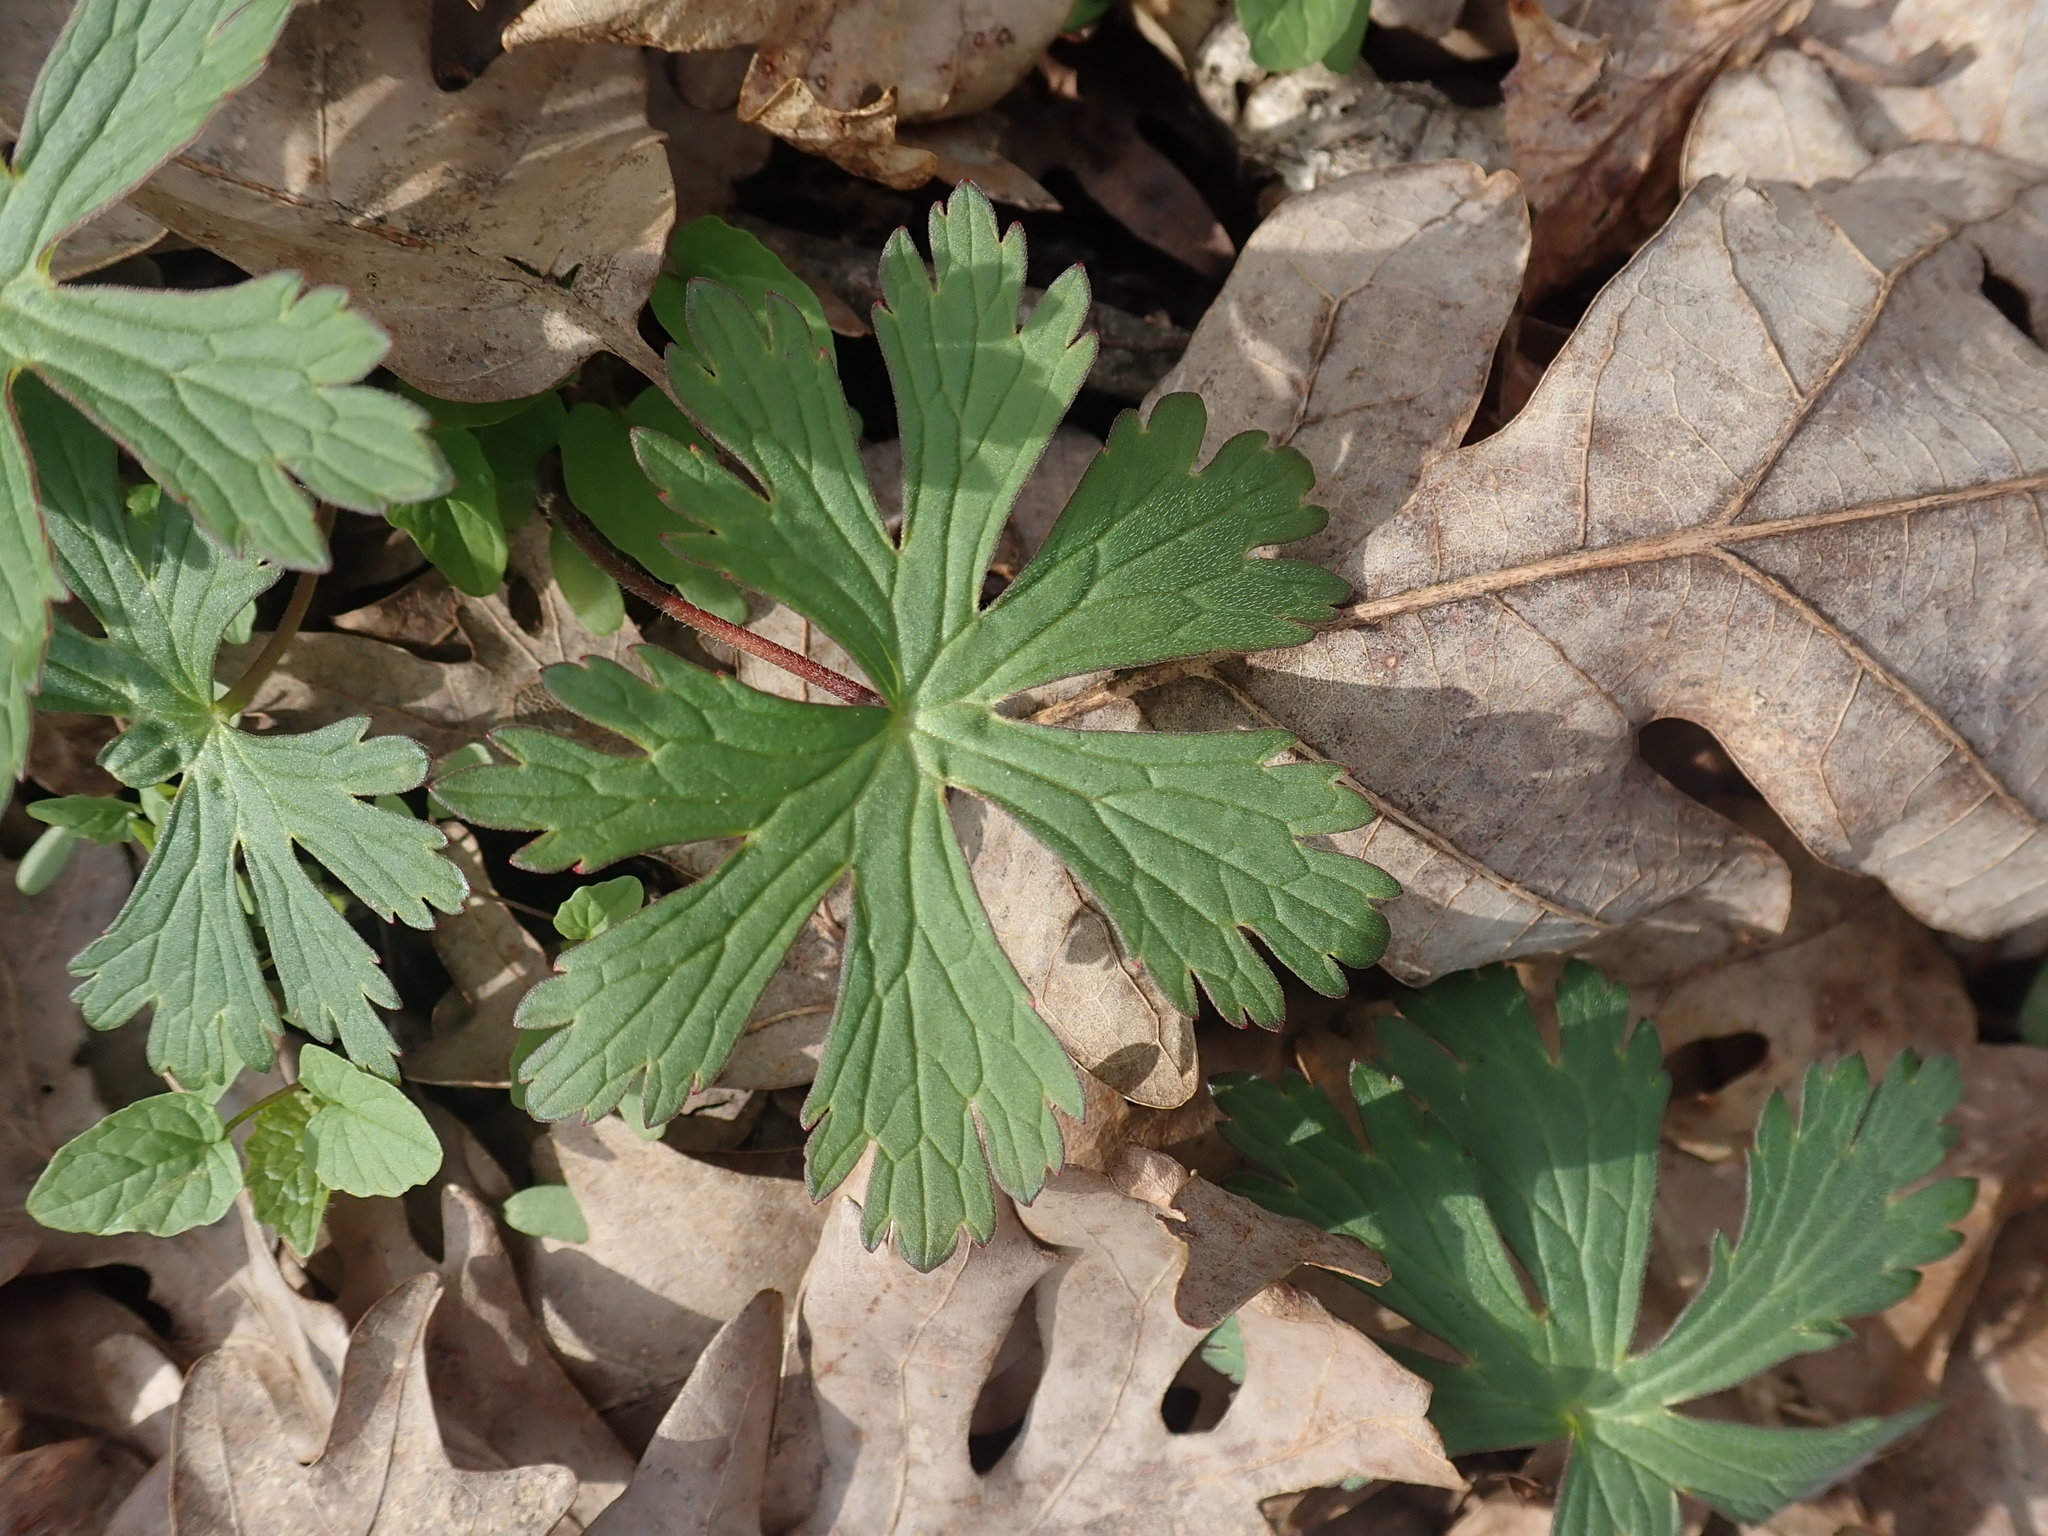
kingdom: Plantae
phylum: Tracheophyta
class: Magnoliopsida
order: Geraniales
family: Geraniaceae
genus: Geranium
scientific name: Geranium maculatum
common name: Spotted geranium
